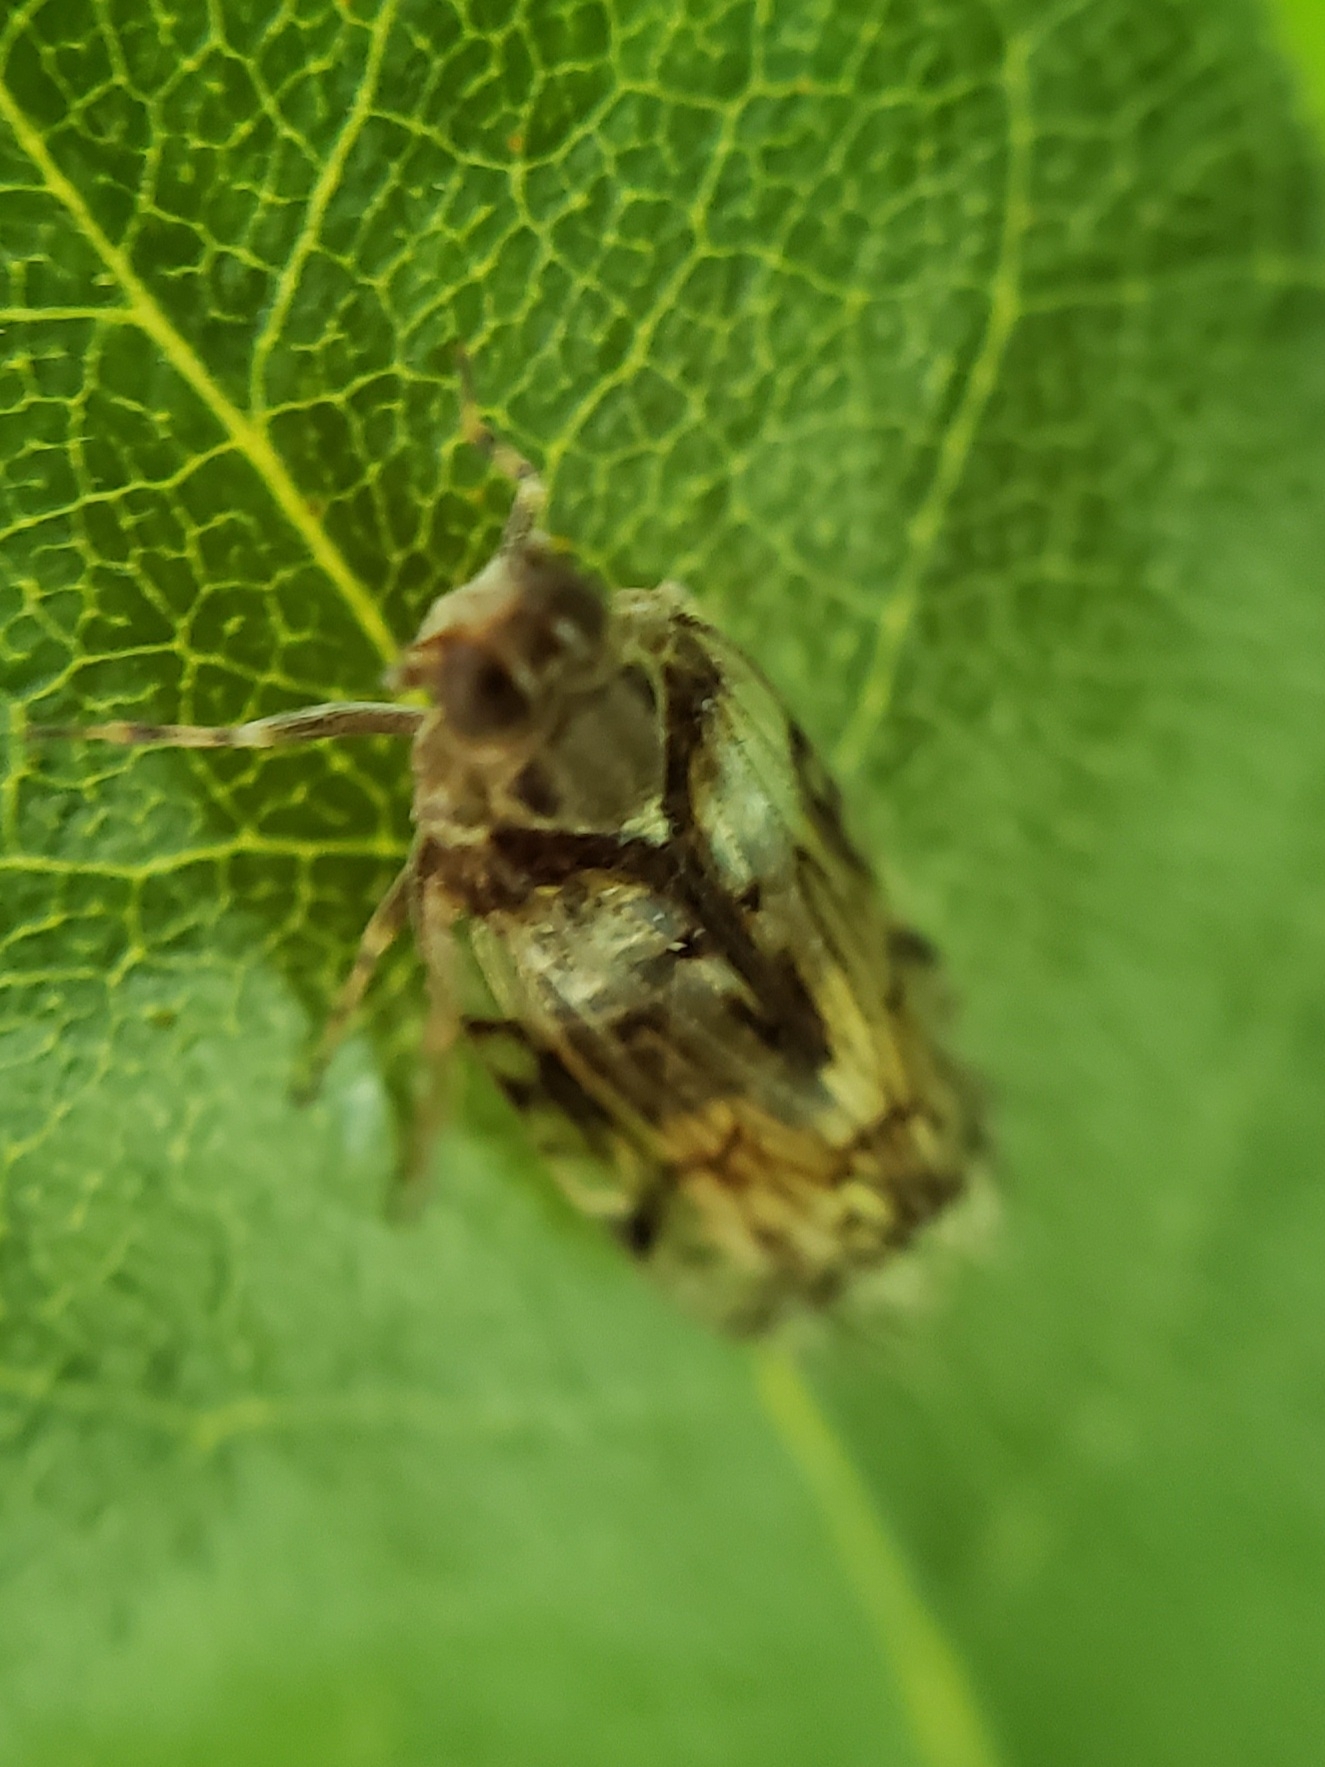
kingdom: Animalia
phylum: Arthropoda
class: Insecta
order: Hemiptera
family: Cixiidae
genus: Melanoliarus
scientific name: Melanoliarus placitus
